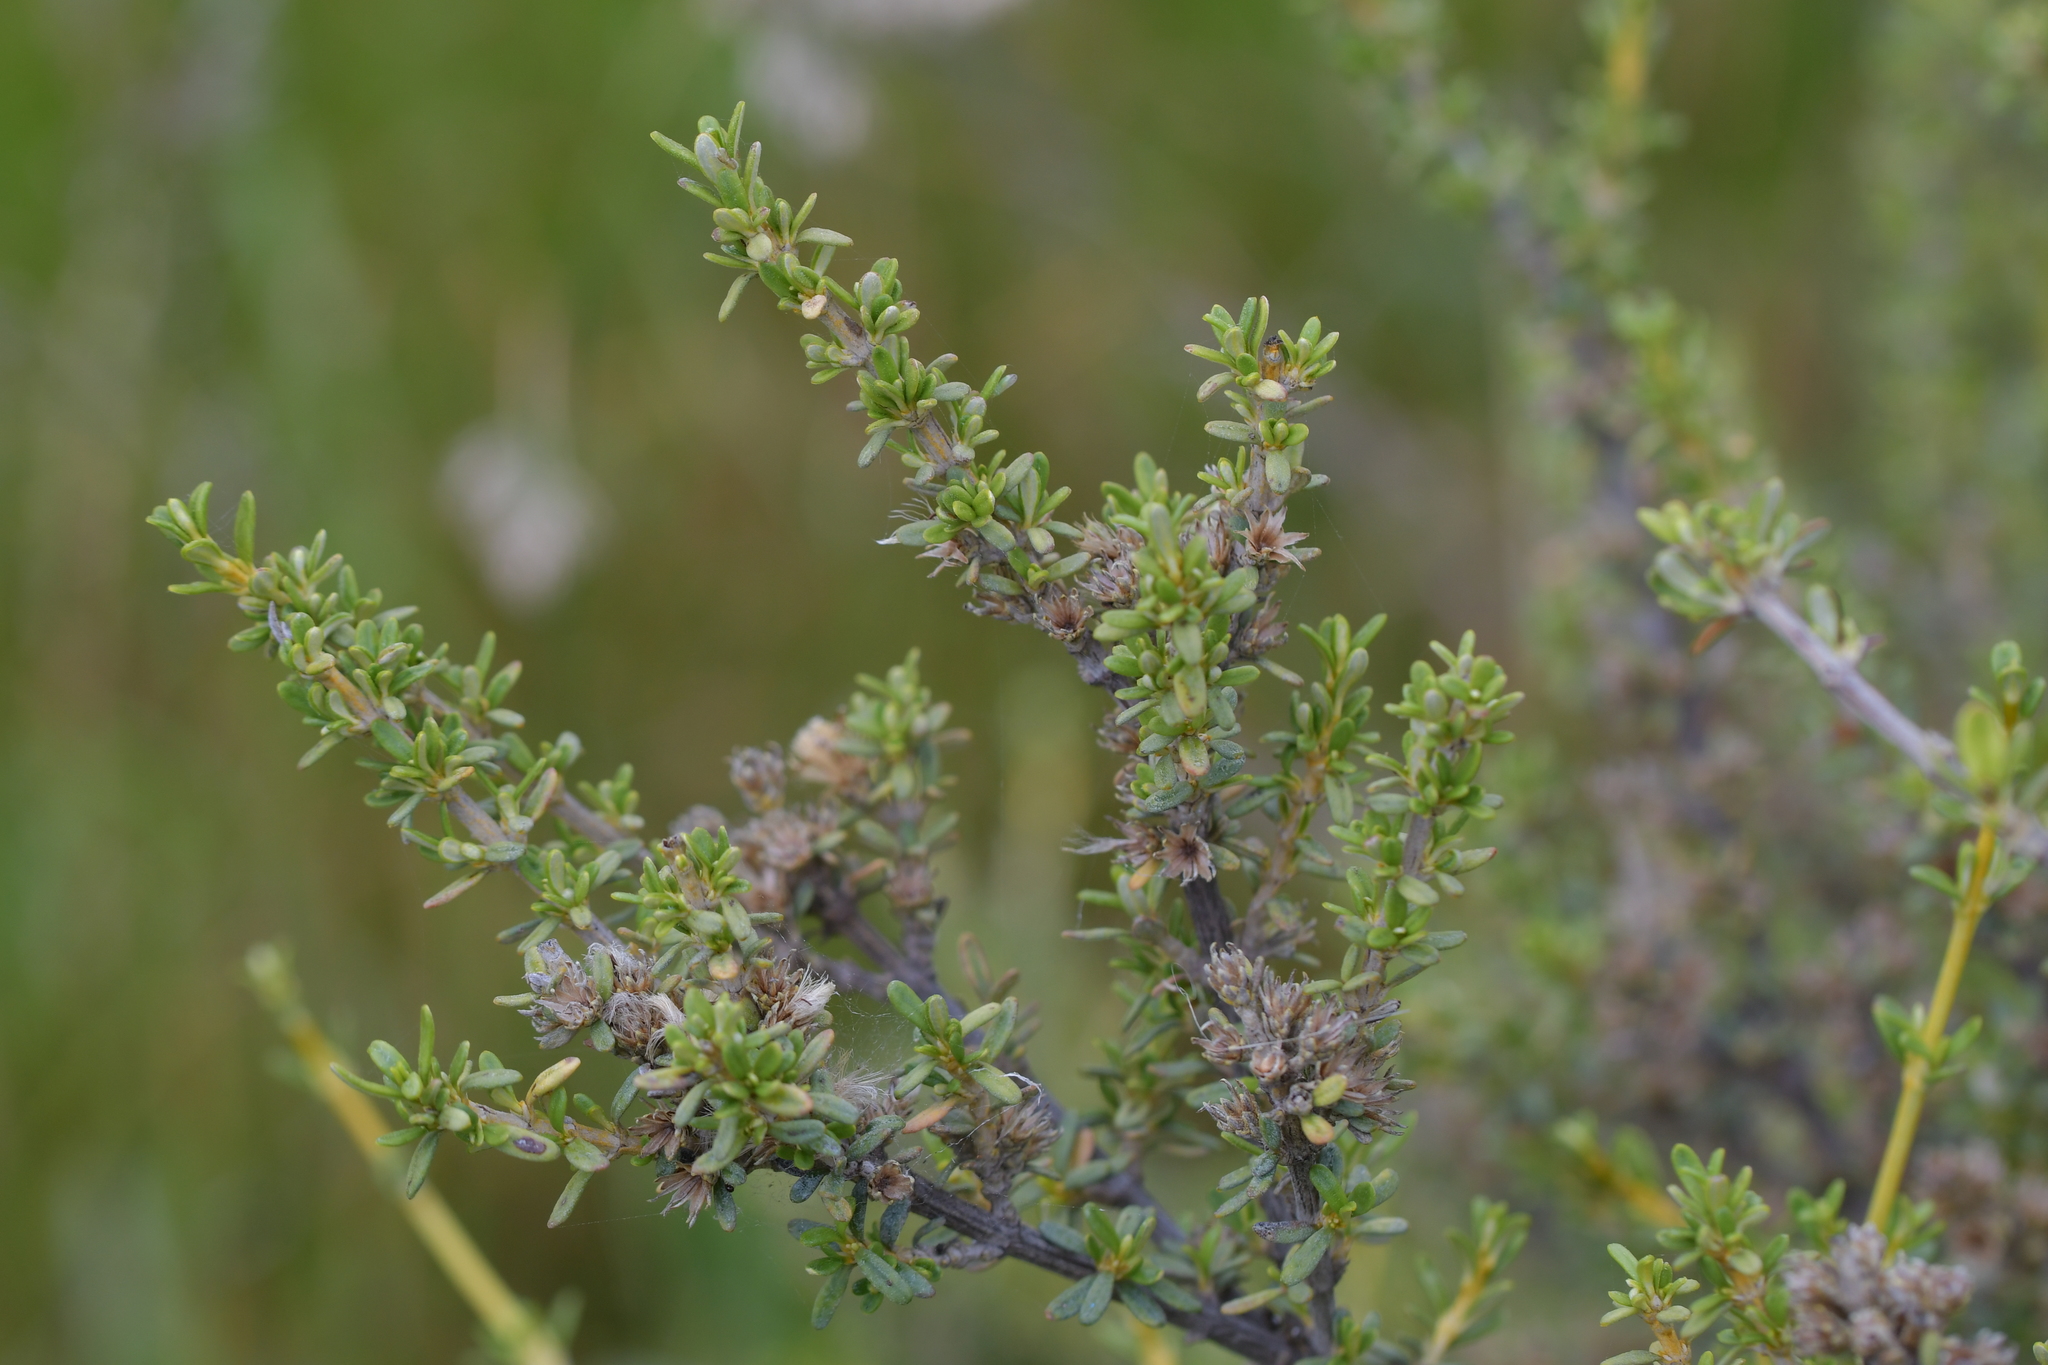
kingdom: Plantae
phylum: Tracheophyta
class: Magnoliopsida
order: Asterales
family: Asteraceae
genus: Olearia
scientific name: Olearia solandri
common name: Coastal daisybush
